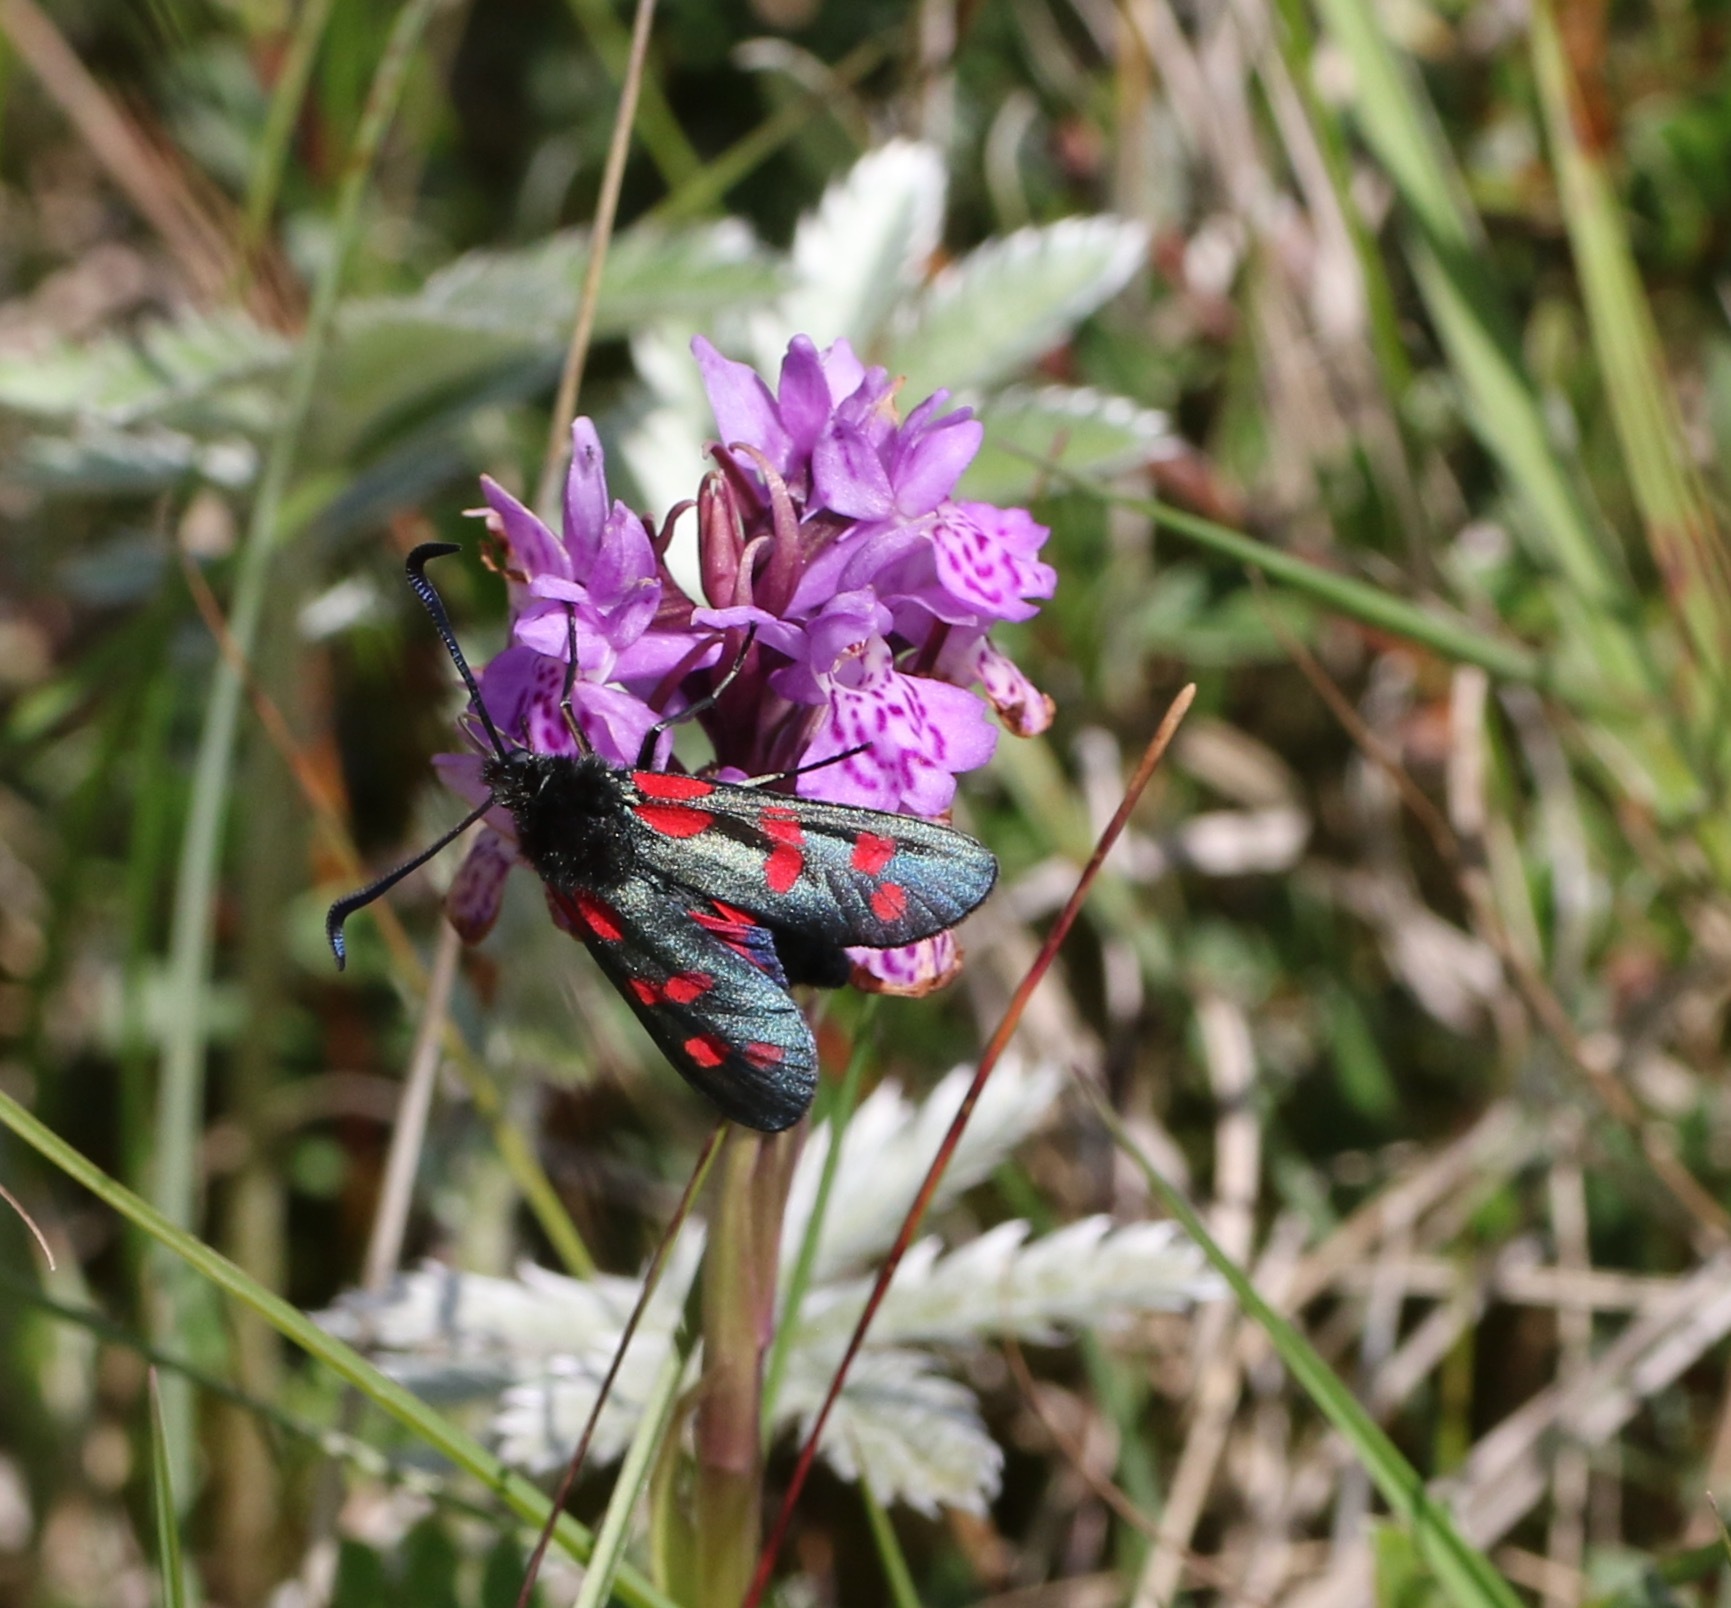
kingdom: Animalia
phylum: Arthropoda
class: Insecta
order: Lepidoptera
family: Zygaenidae
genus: Zygaena
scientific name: Zygaena filipendulae
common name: Six-spot burnet
